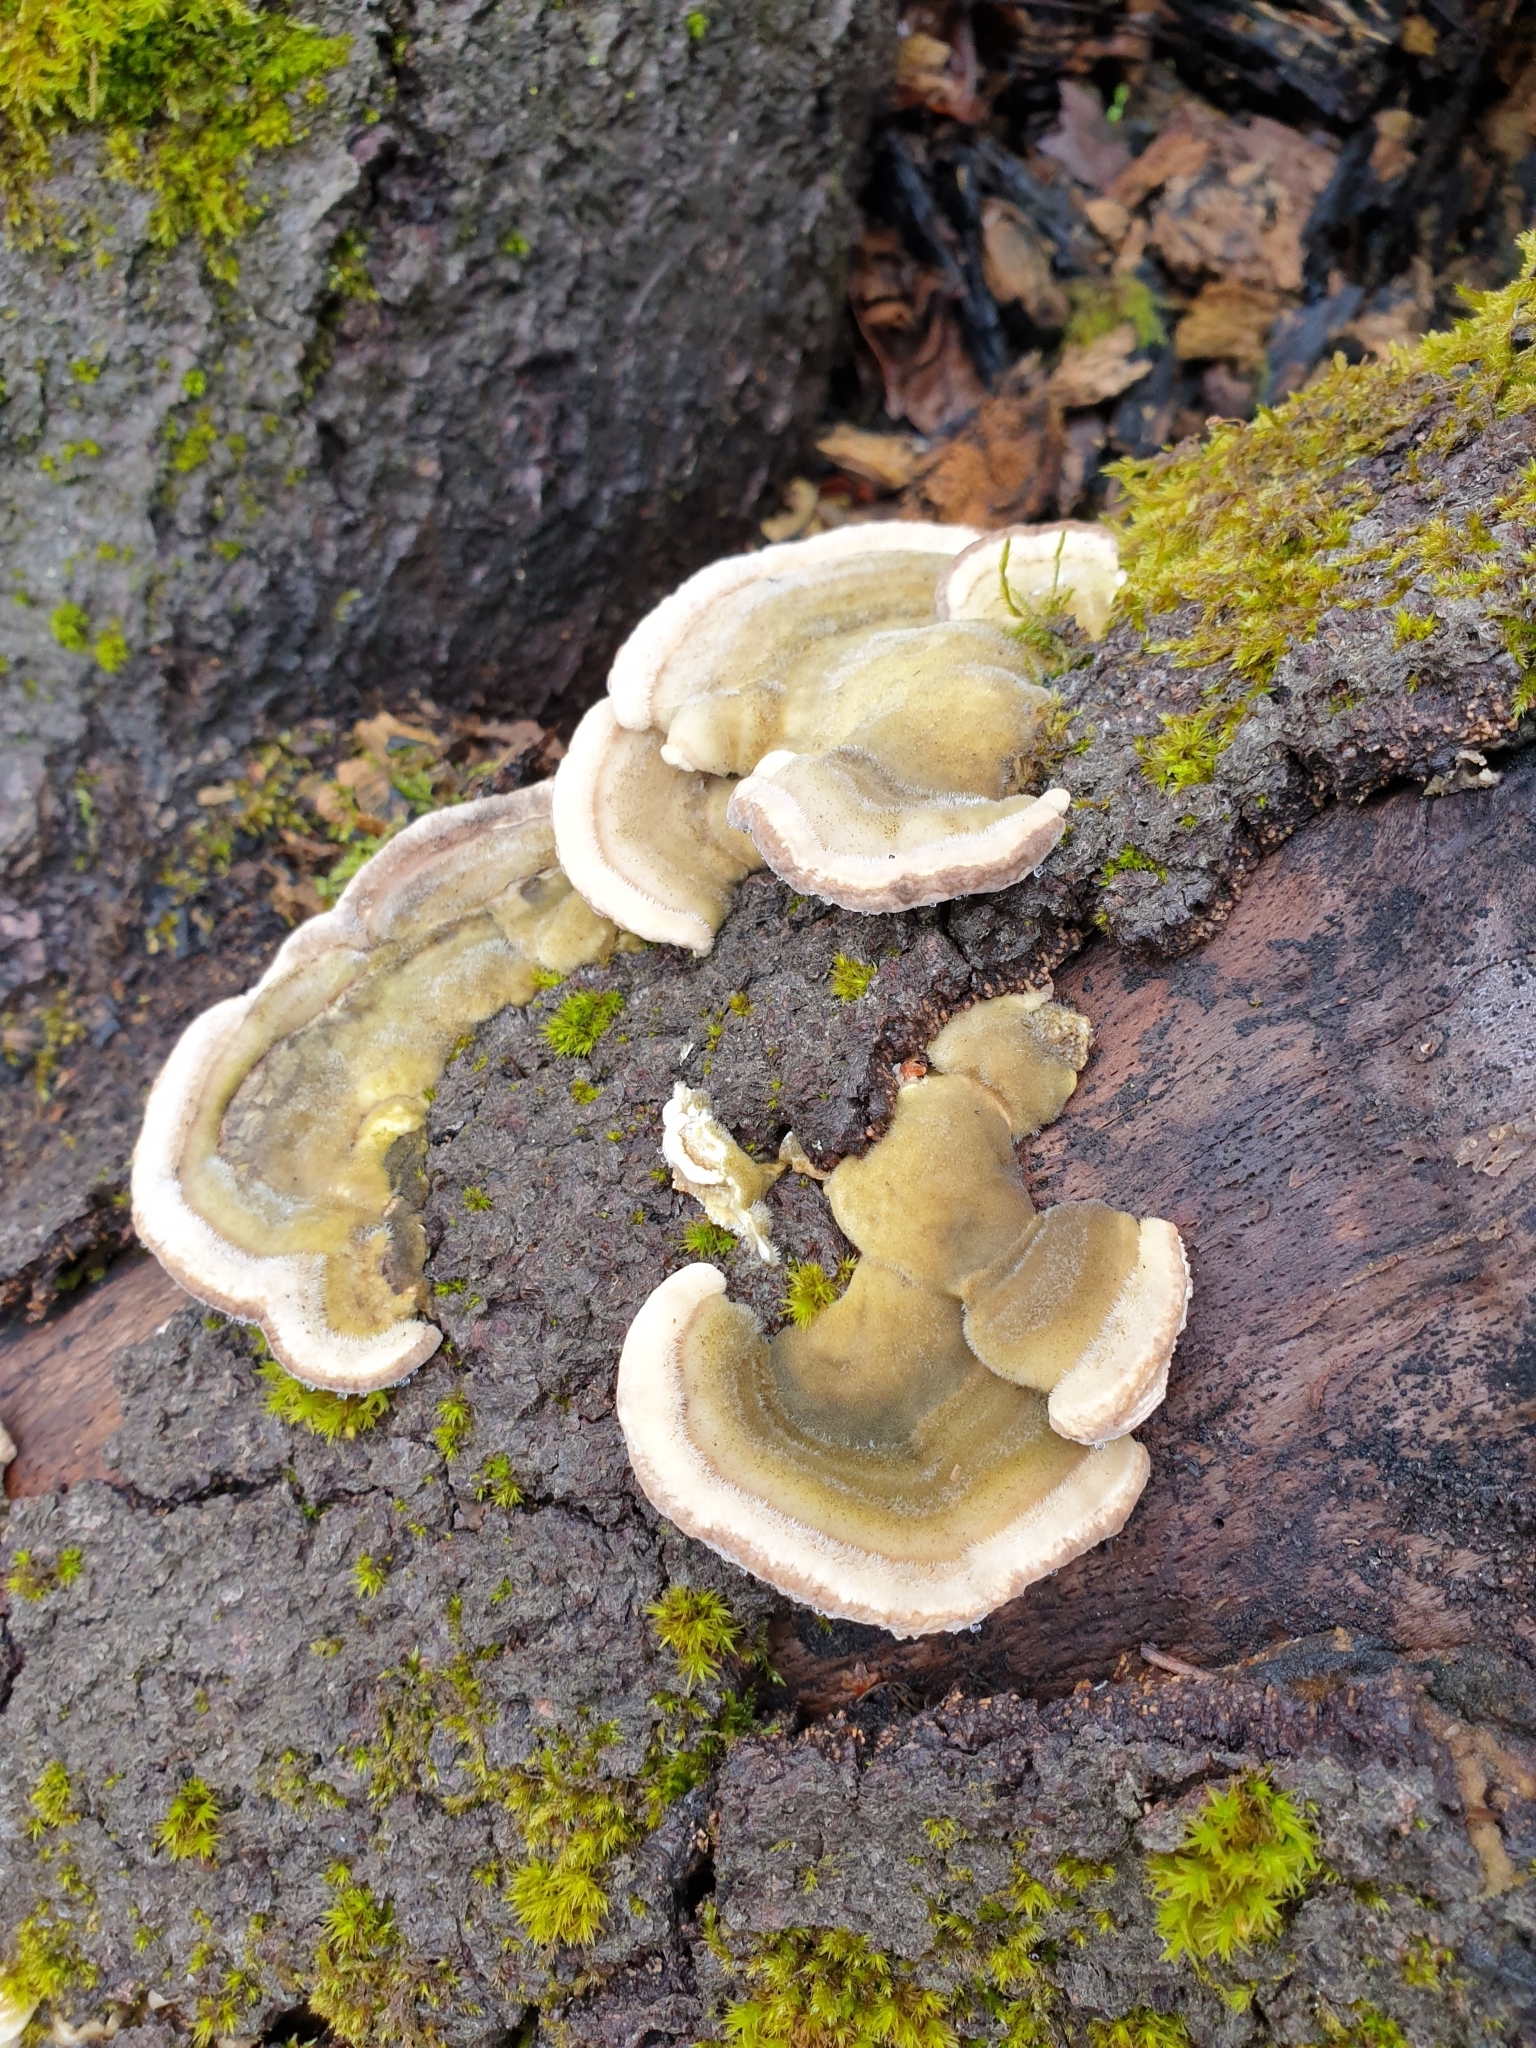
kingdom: Fungi
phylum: Basidiomycota
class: Agaricomycetes
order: Polyporales
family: Polyporaceae
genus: Trametes
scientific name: Trametes hirsuta
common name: Hairy bracket
